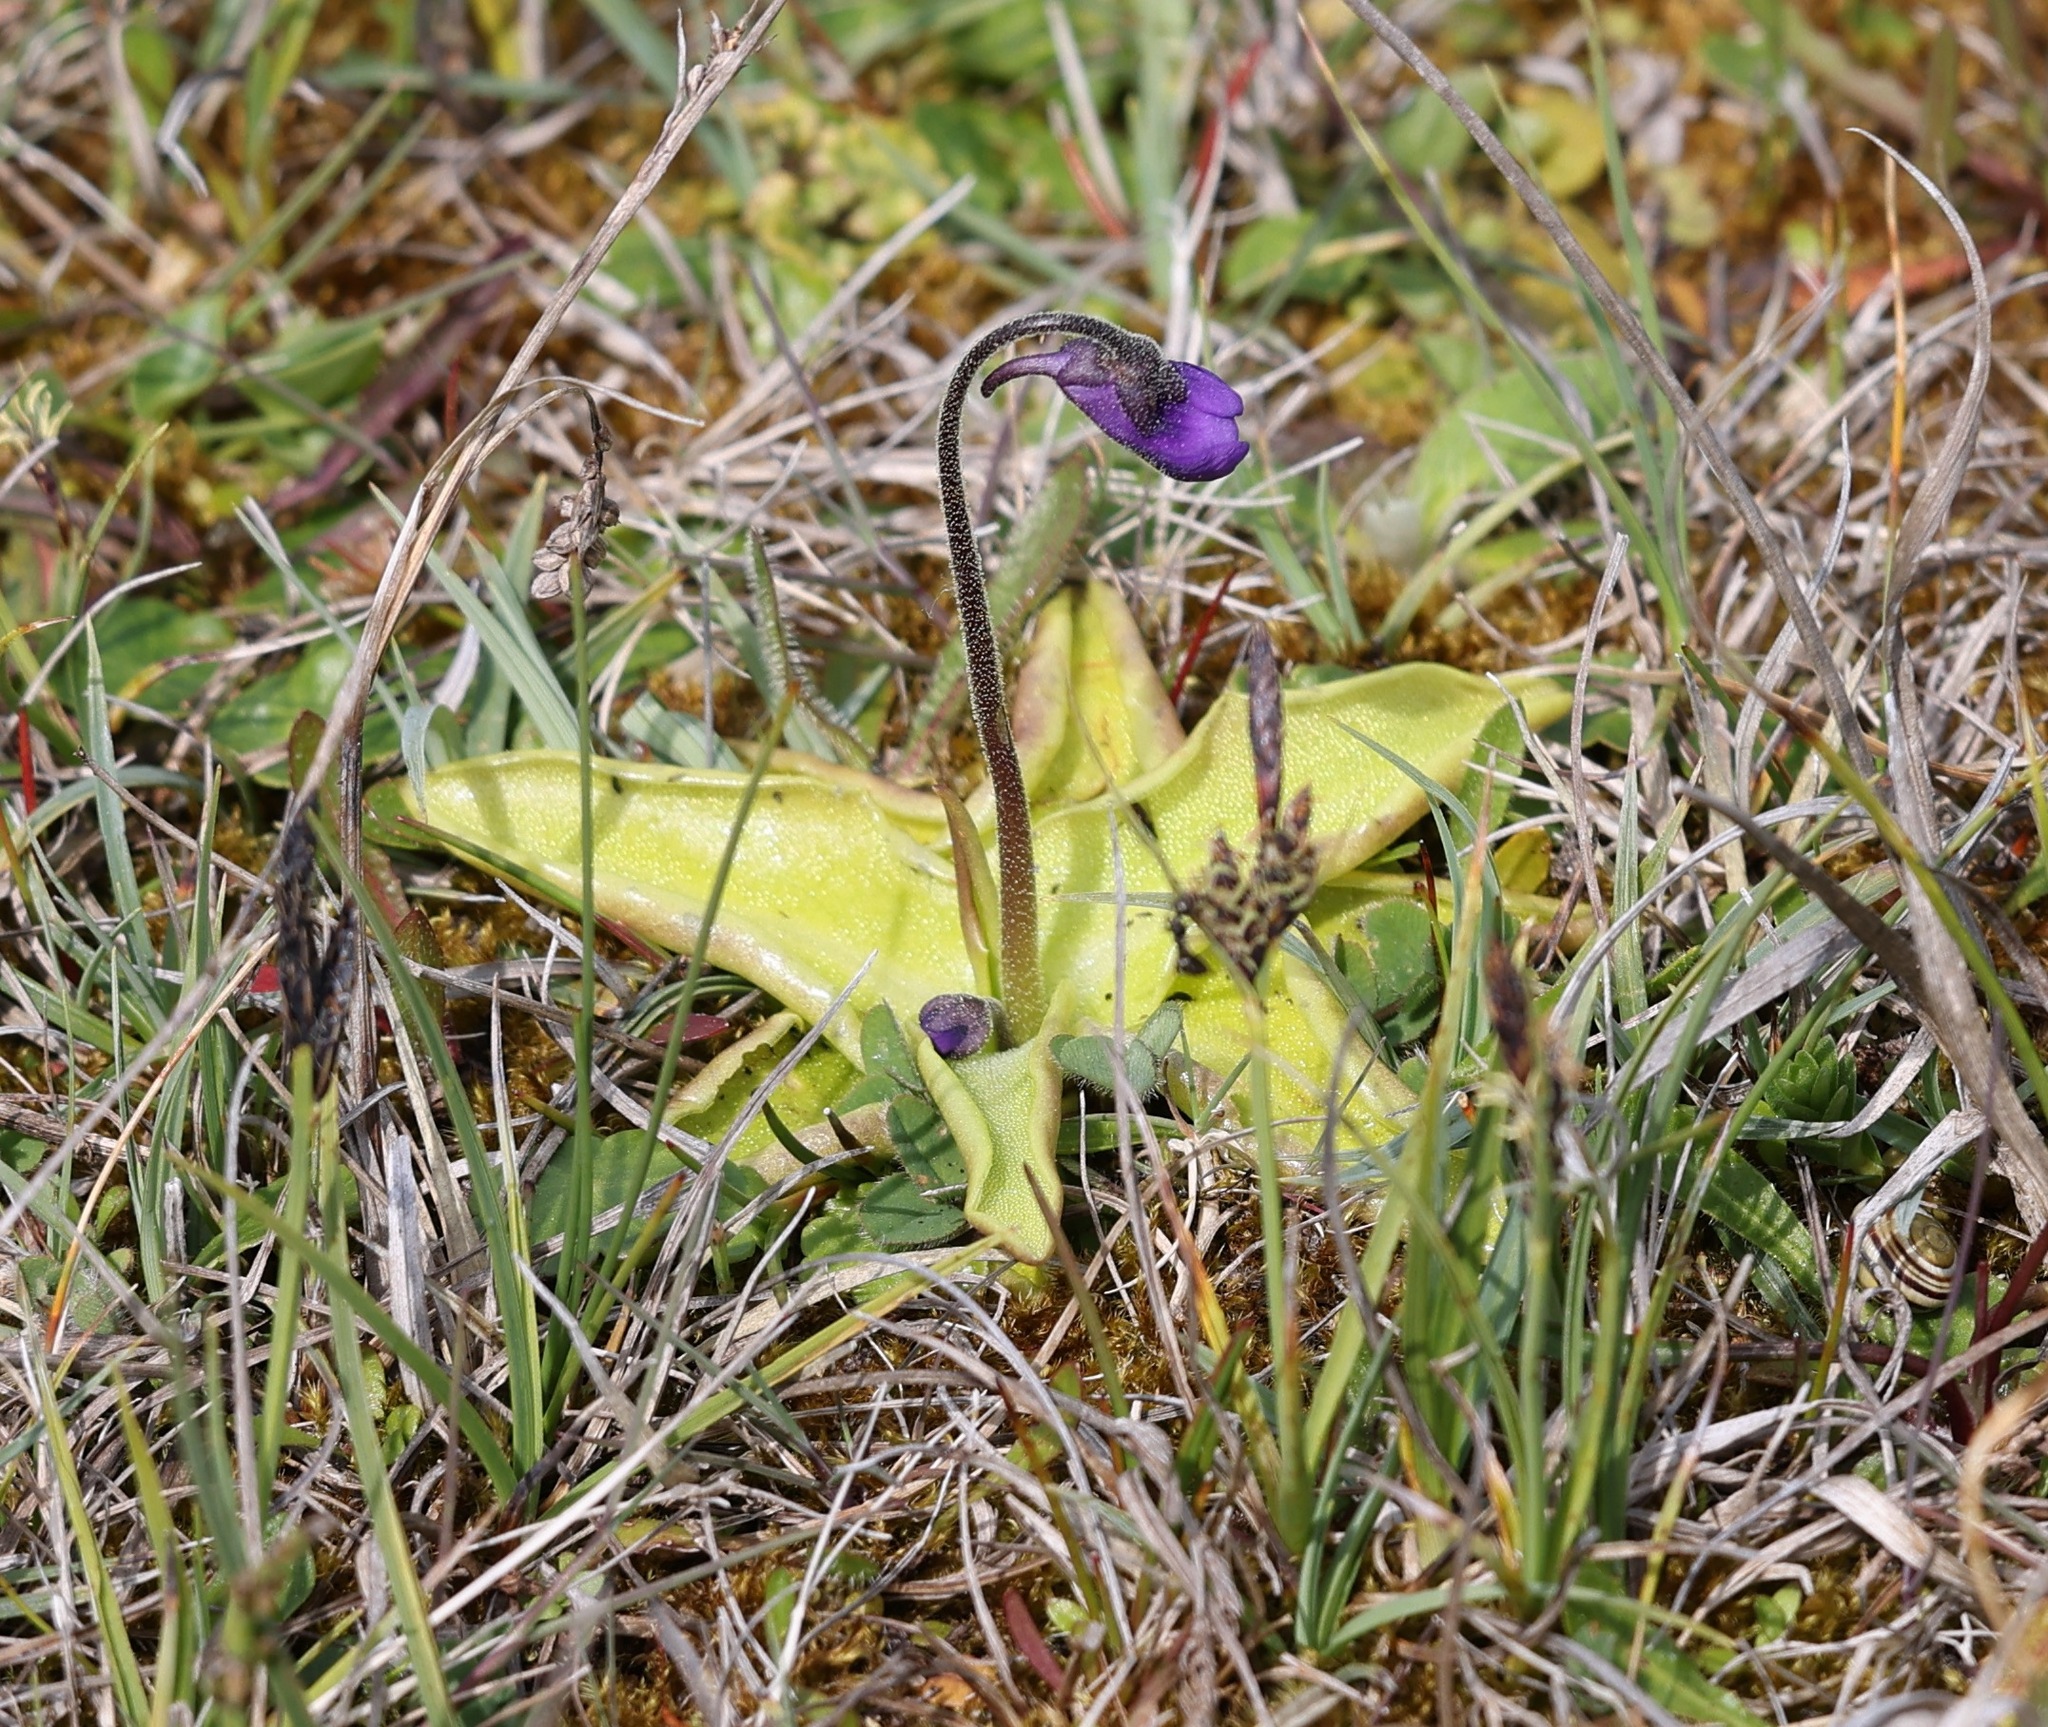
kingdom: Plantae
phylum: Tracheophyta
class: Magnoliopsida
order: Lamiales
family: Lentibulariaceae
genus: Pinguicula
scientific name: Pinguicula vulgaris
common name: Common butterwort
